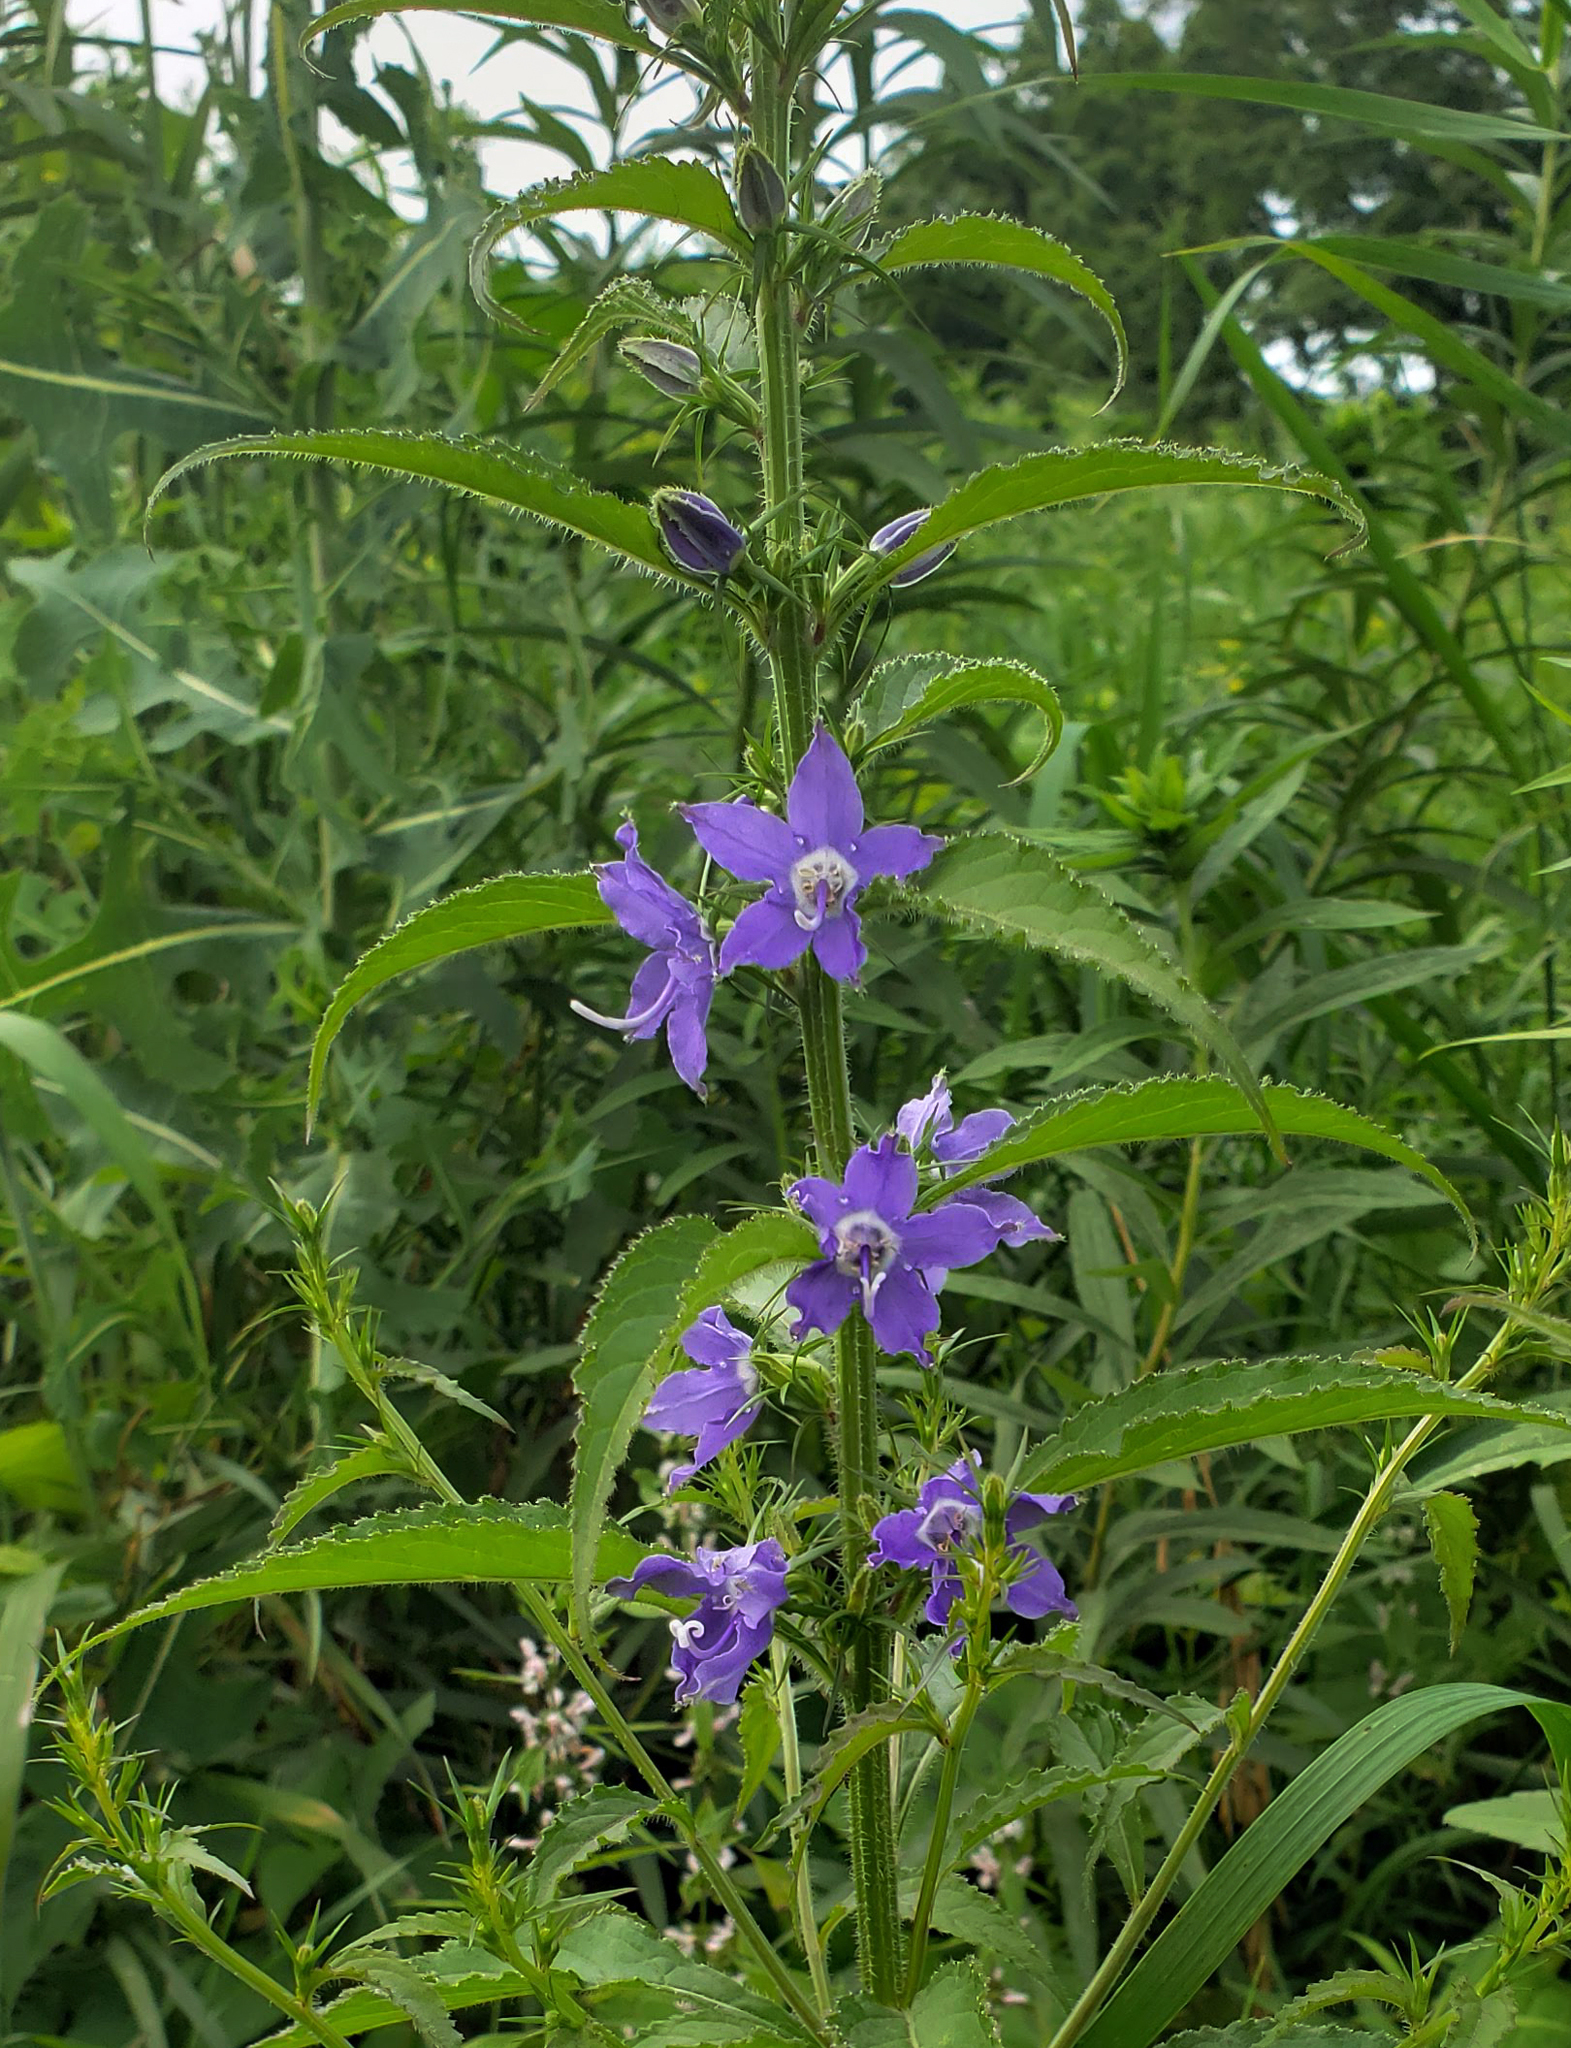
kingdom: Plantae
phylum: Tracheophyta
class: Magnoliopsida
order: Asterales
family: Campanulaceae
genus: Campanulastrum
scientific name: Campanulastrum americanum
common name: American bellflower
